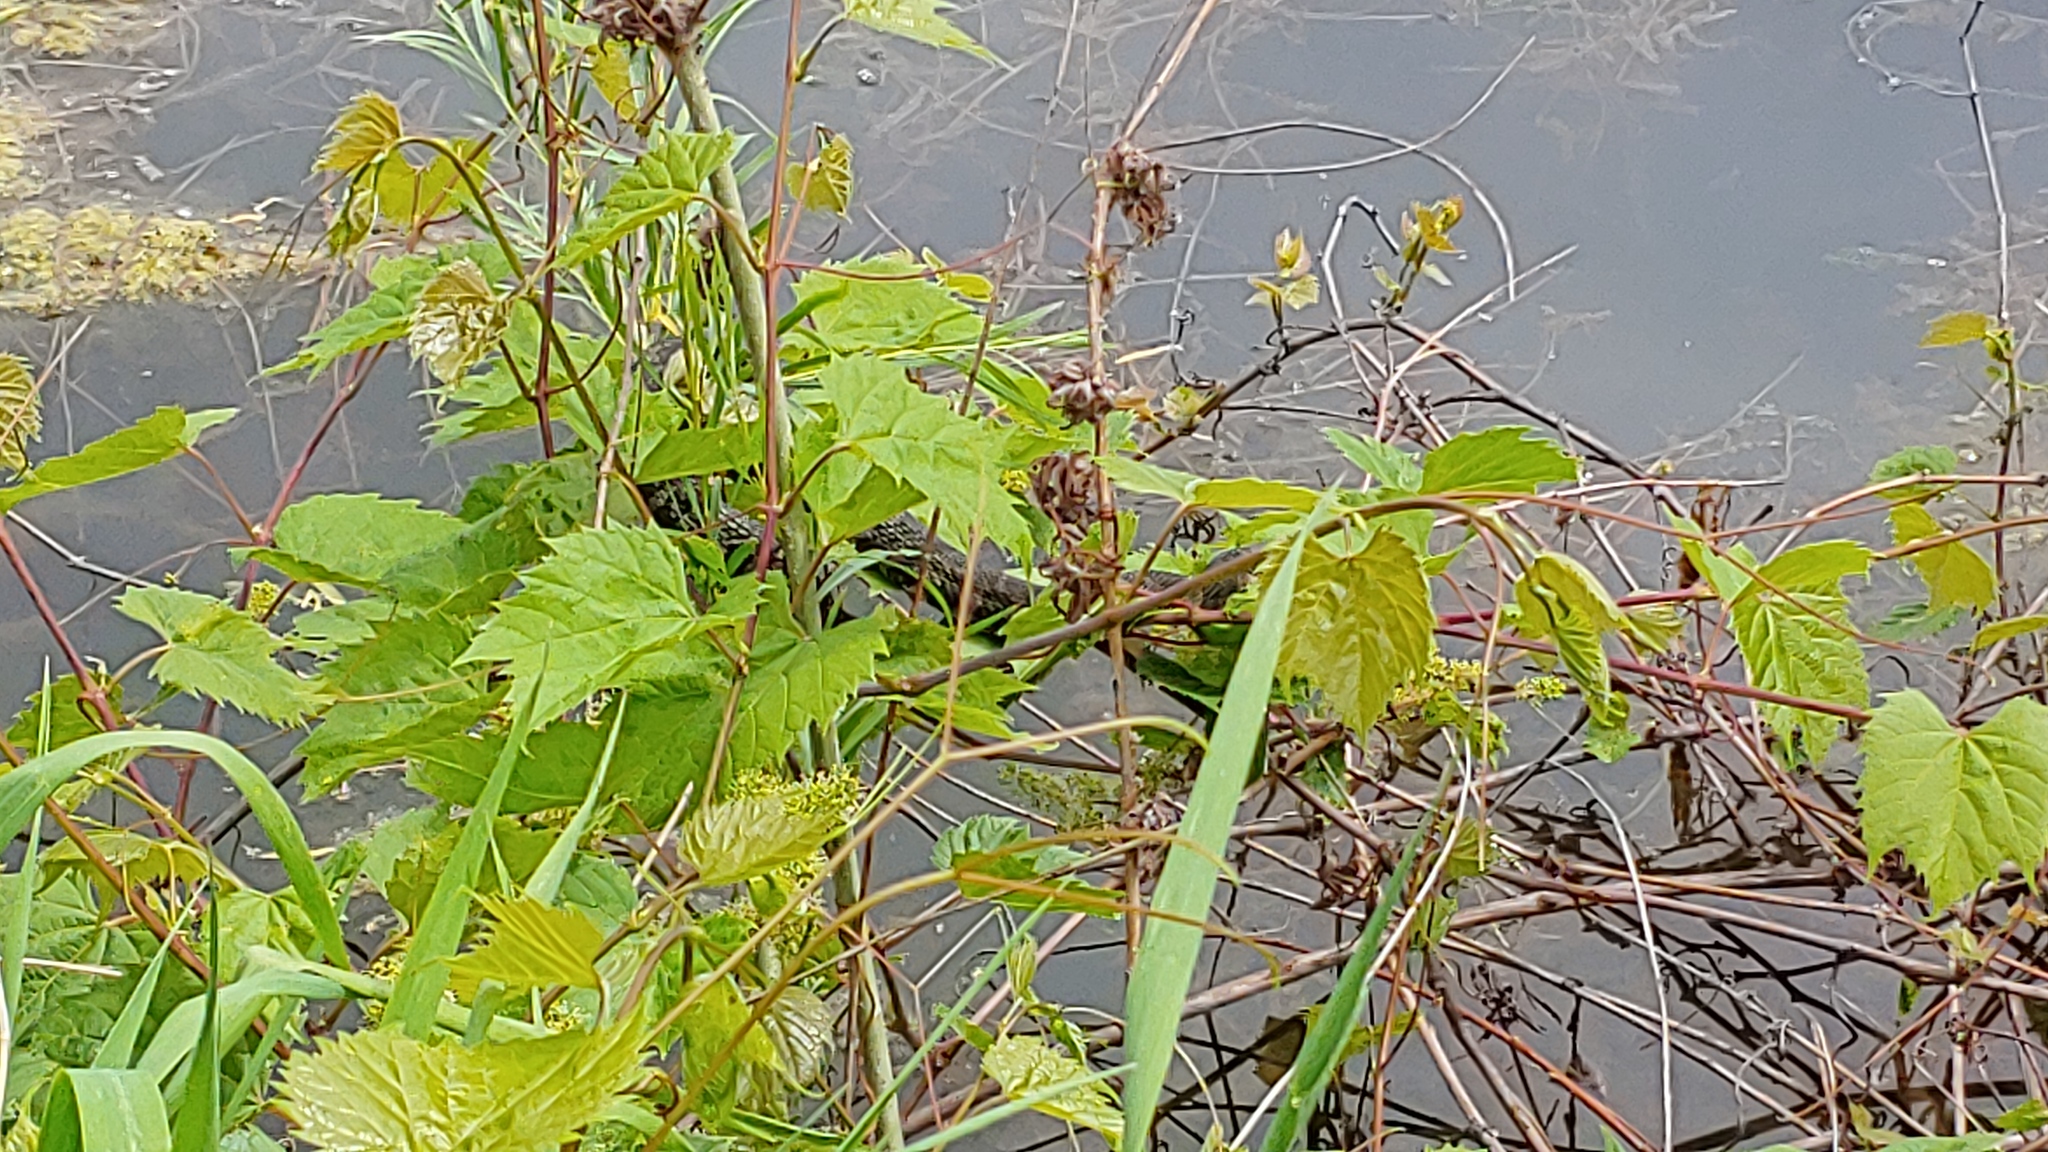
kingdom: Animalia
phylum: Chordata
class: Squamata
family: Colubridae
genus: Nerodia
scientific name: Nerodia sipedon
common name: Northern water snake
